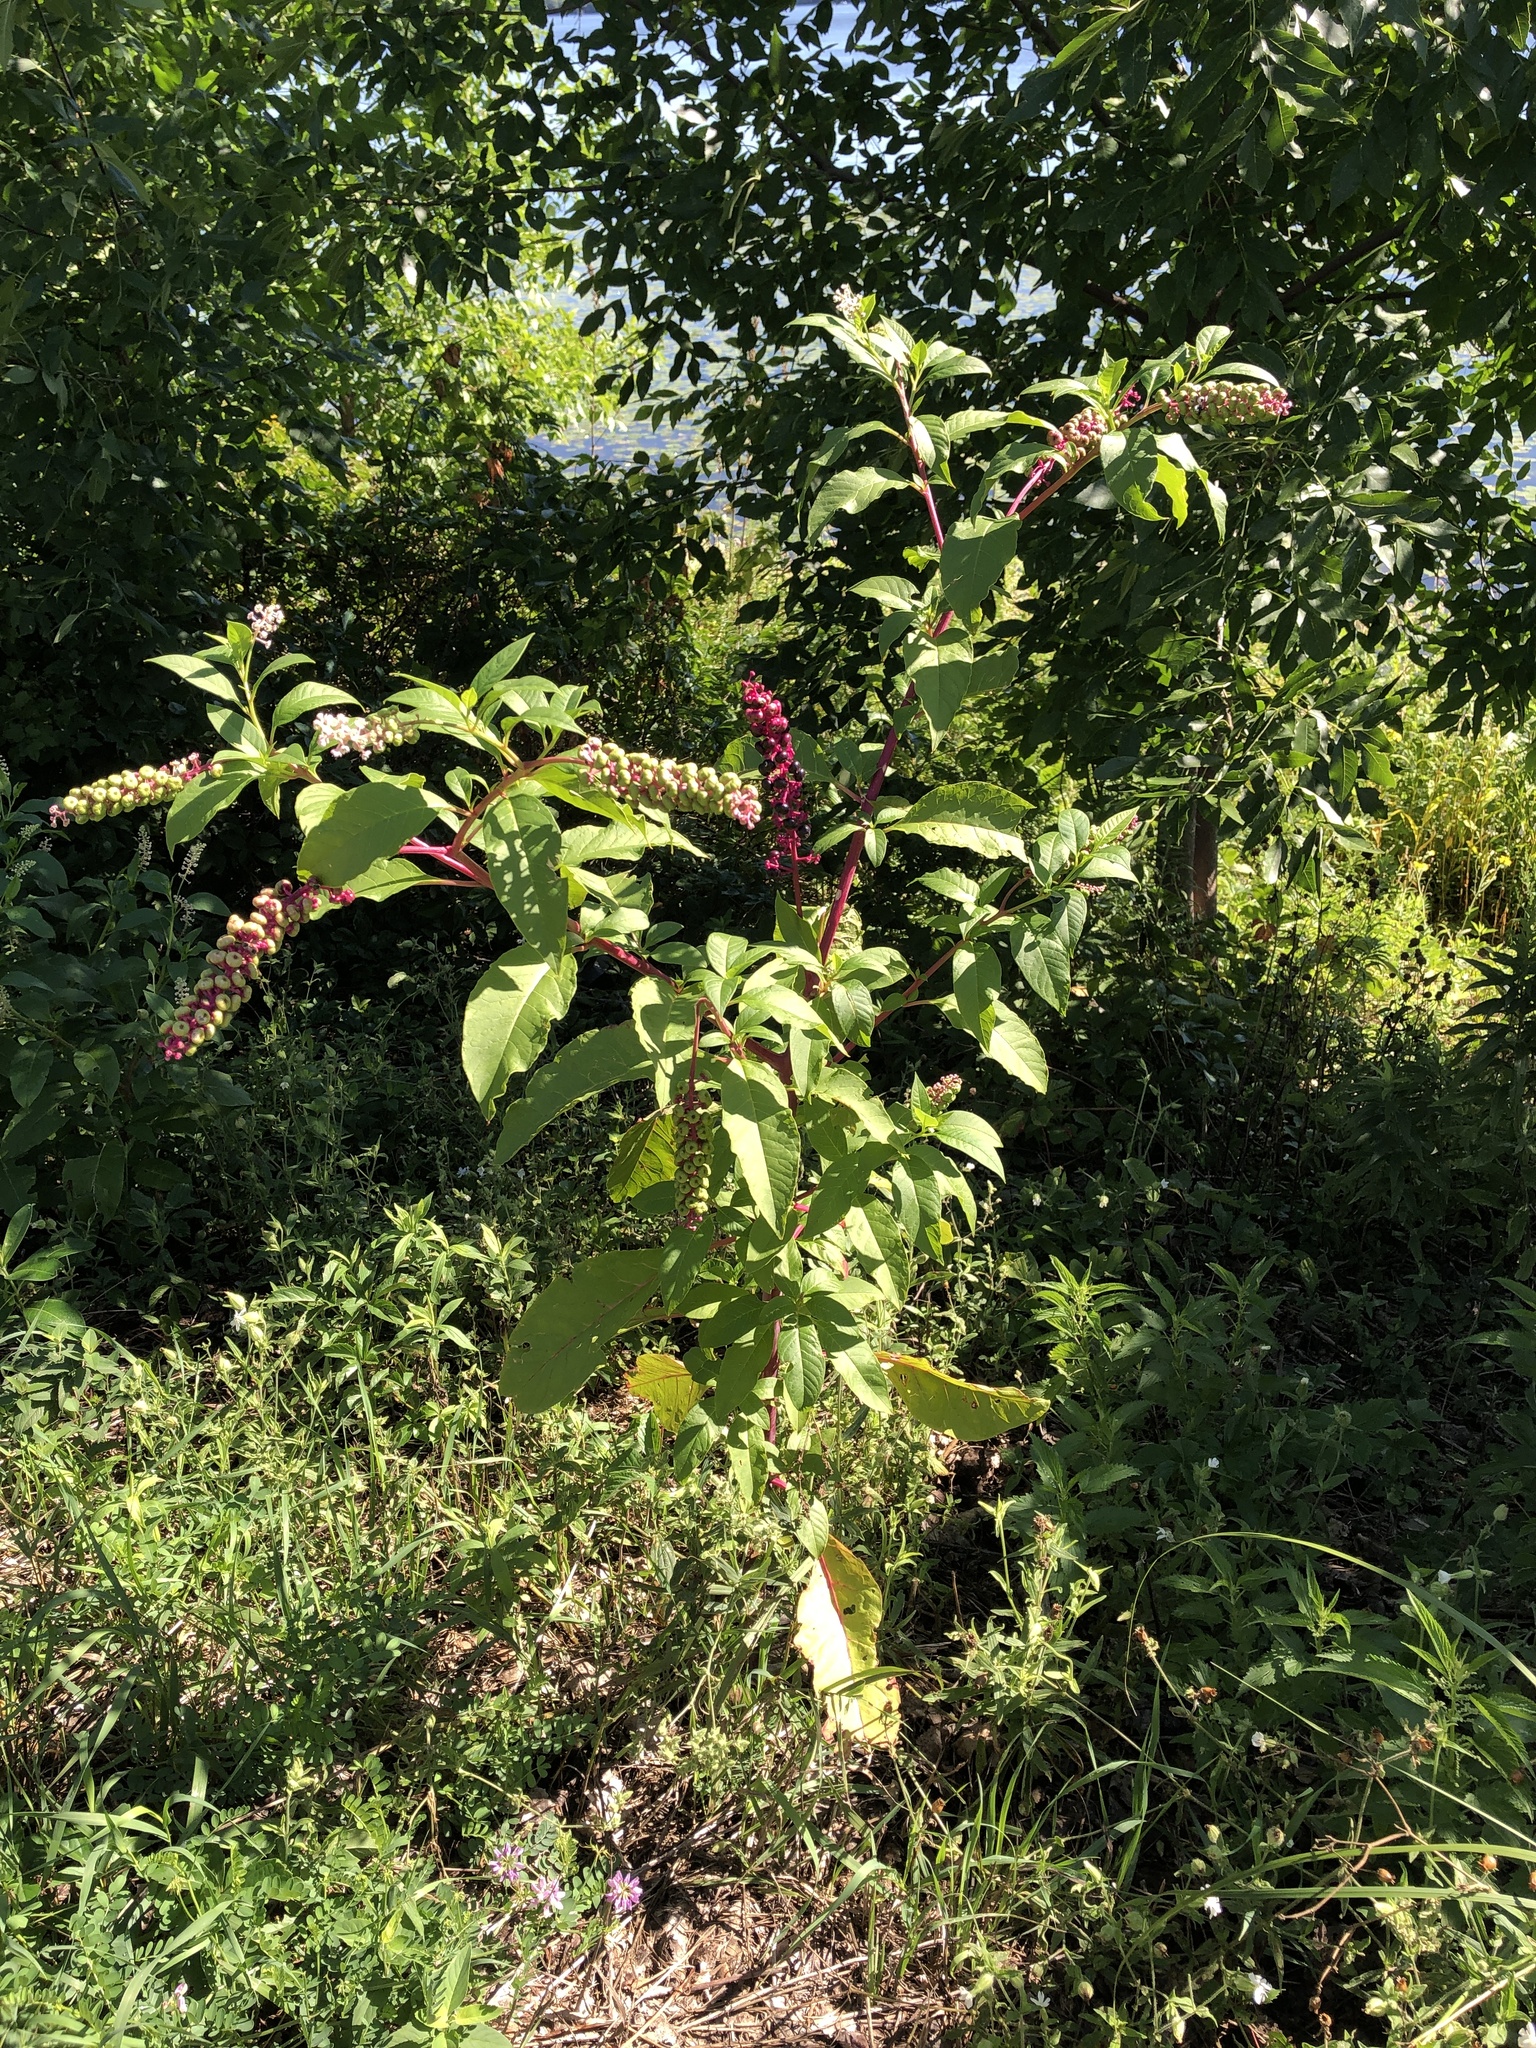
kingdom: Plantae
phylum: Tracheophyta
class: Magnoliopsida
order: Caryophyllales
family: Phytolaccaceae
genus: Phytolacca
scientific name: Phytolacca americana
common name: American pokeweed
